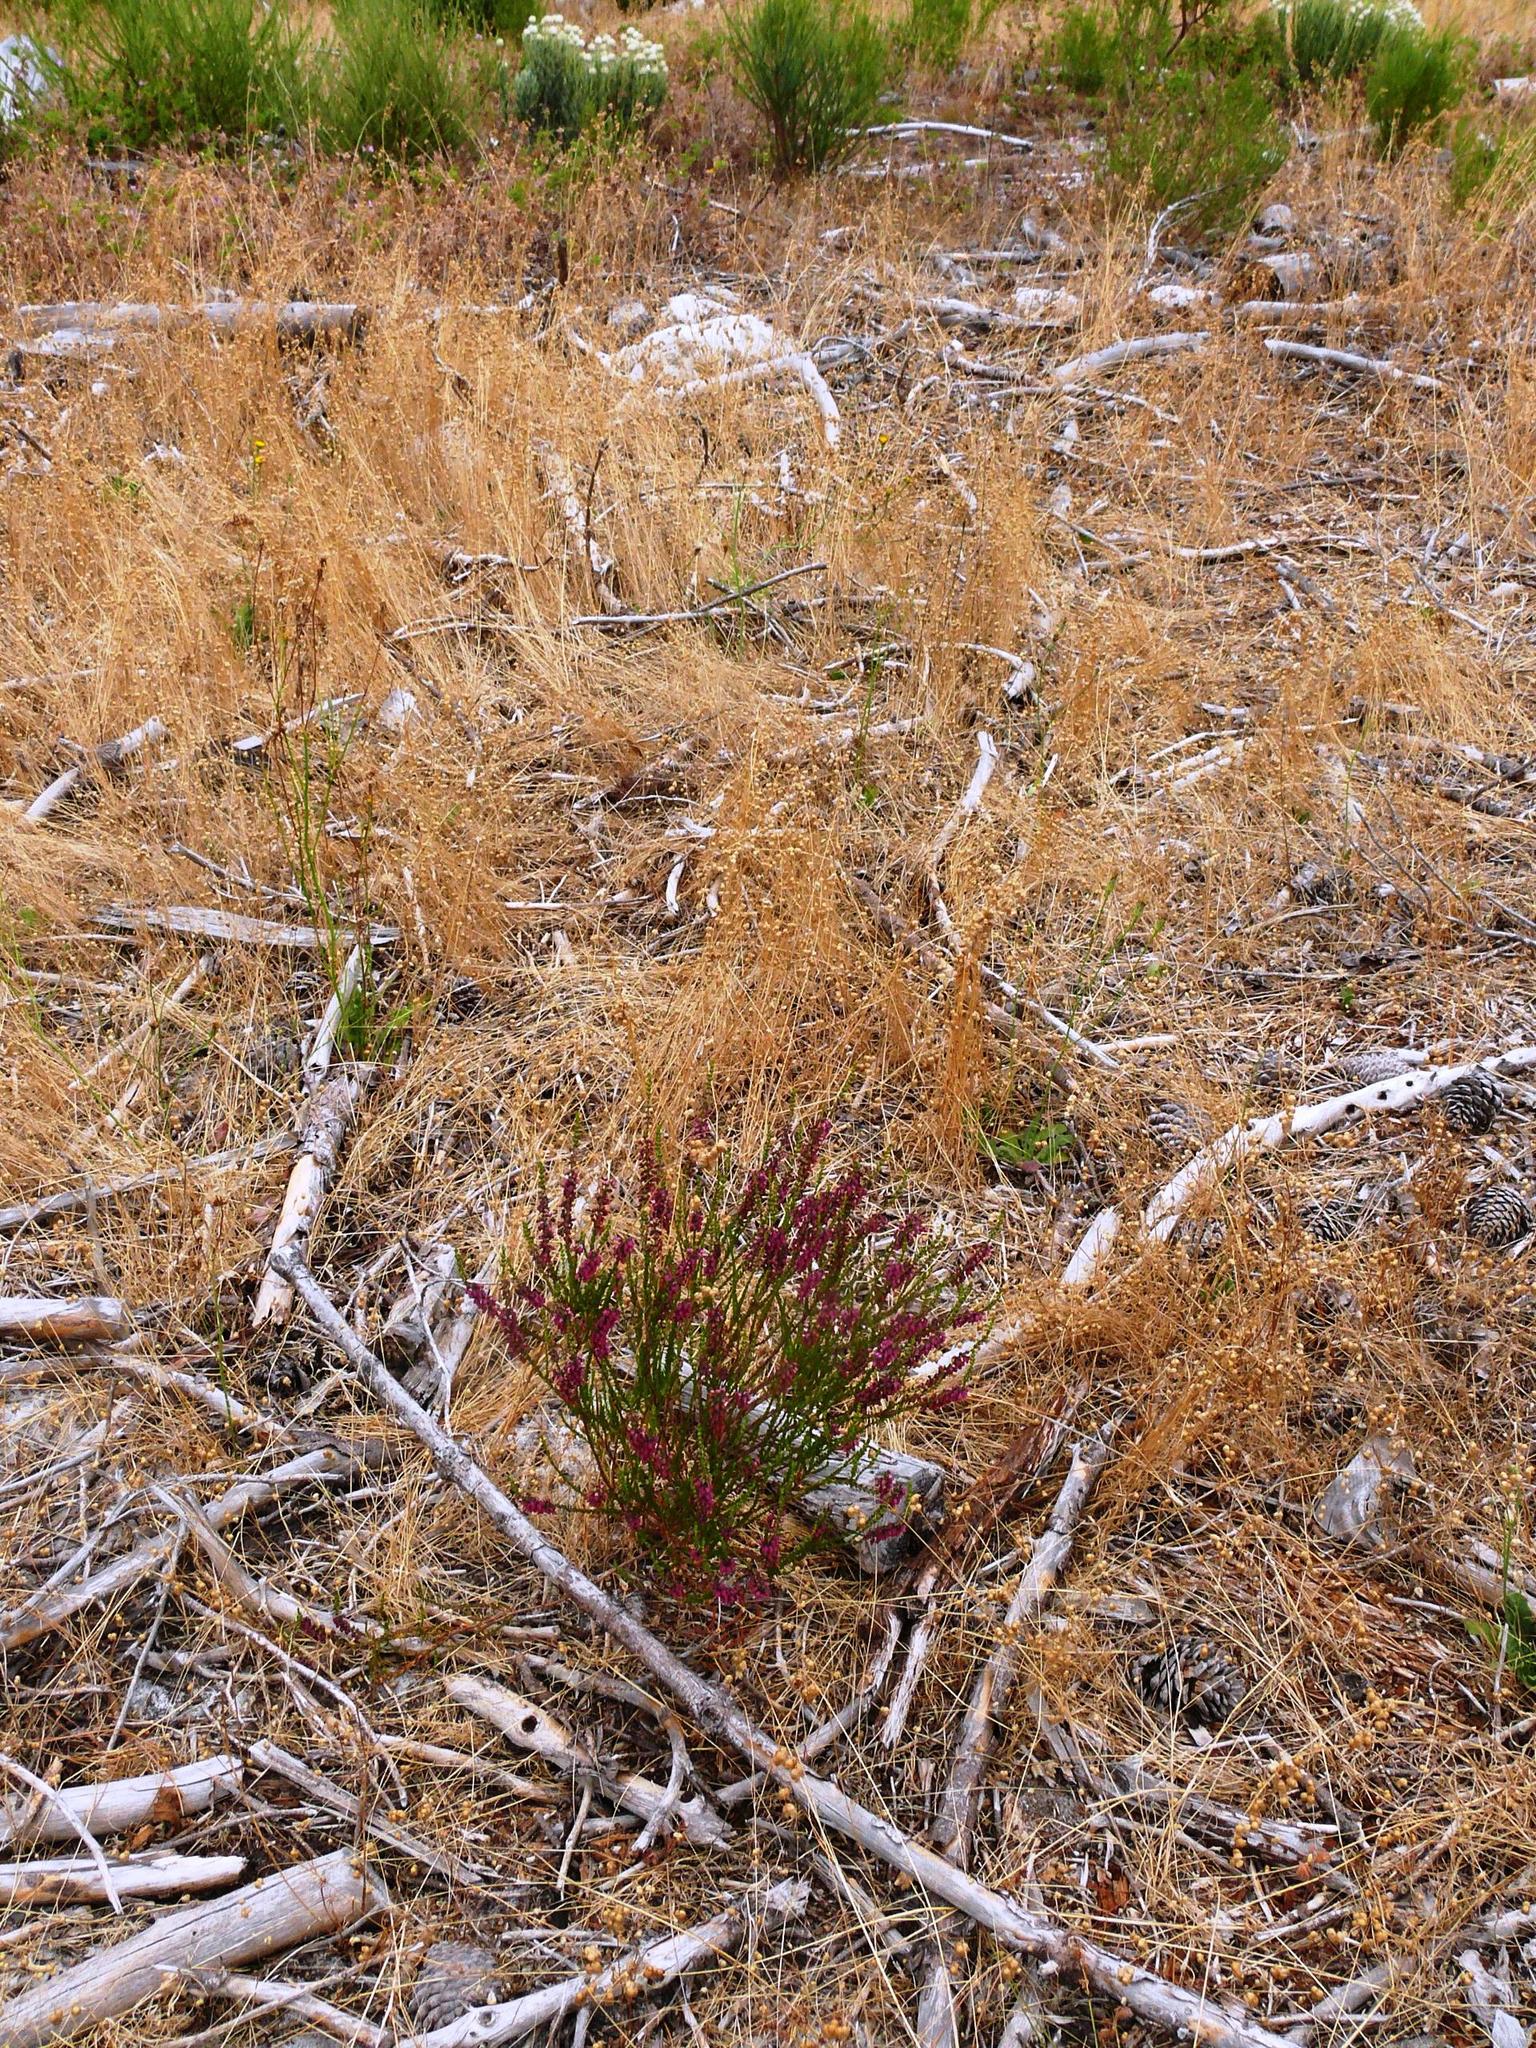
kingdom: Plantae
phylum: Tracheophyta
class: Magnoliopsida
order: Ericales
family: Ericaceae
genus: Erica
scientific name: Erica pulchella
